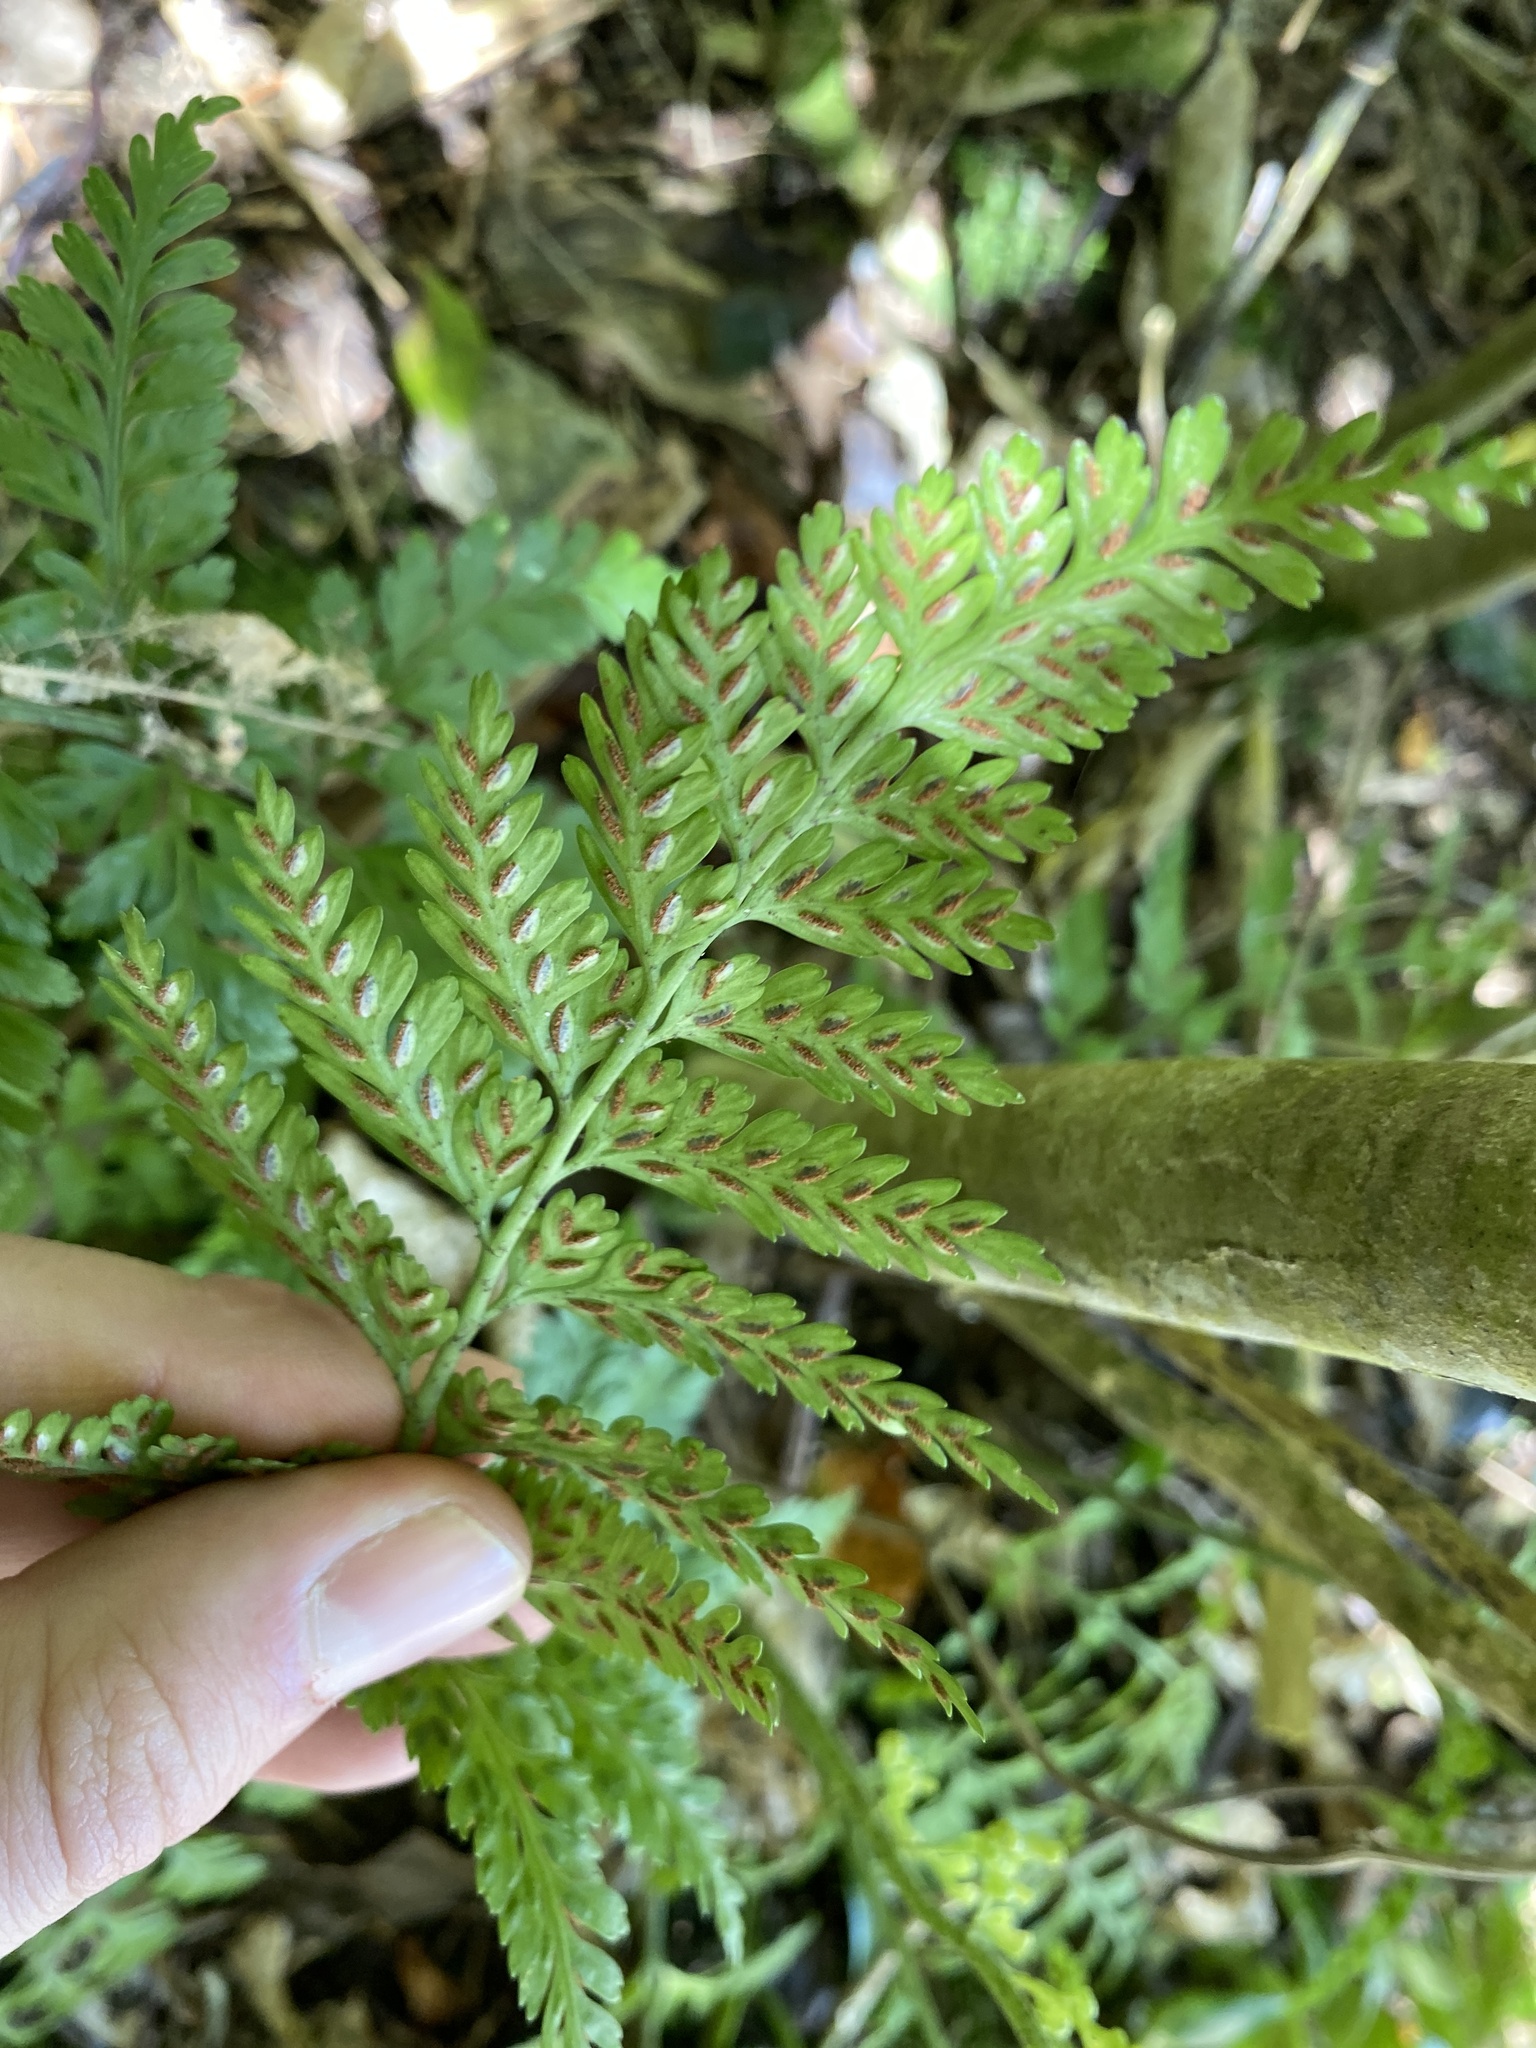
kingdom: Plantae
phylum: Tracheophyta
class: Polypodiopsida
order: Polypodiales
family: Aspleniaceae
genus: Asplenium
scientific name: Asplenium
